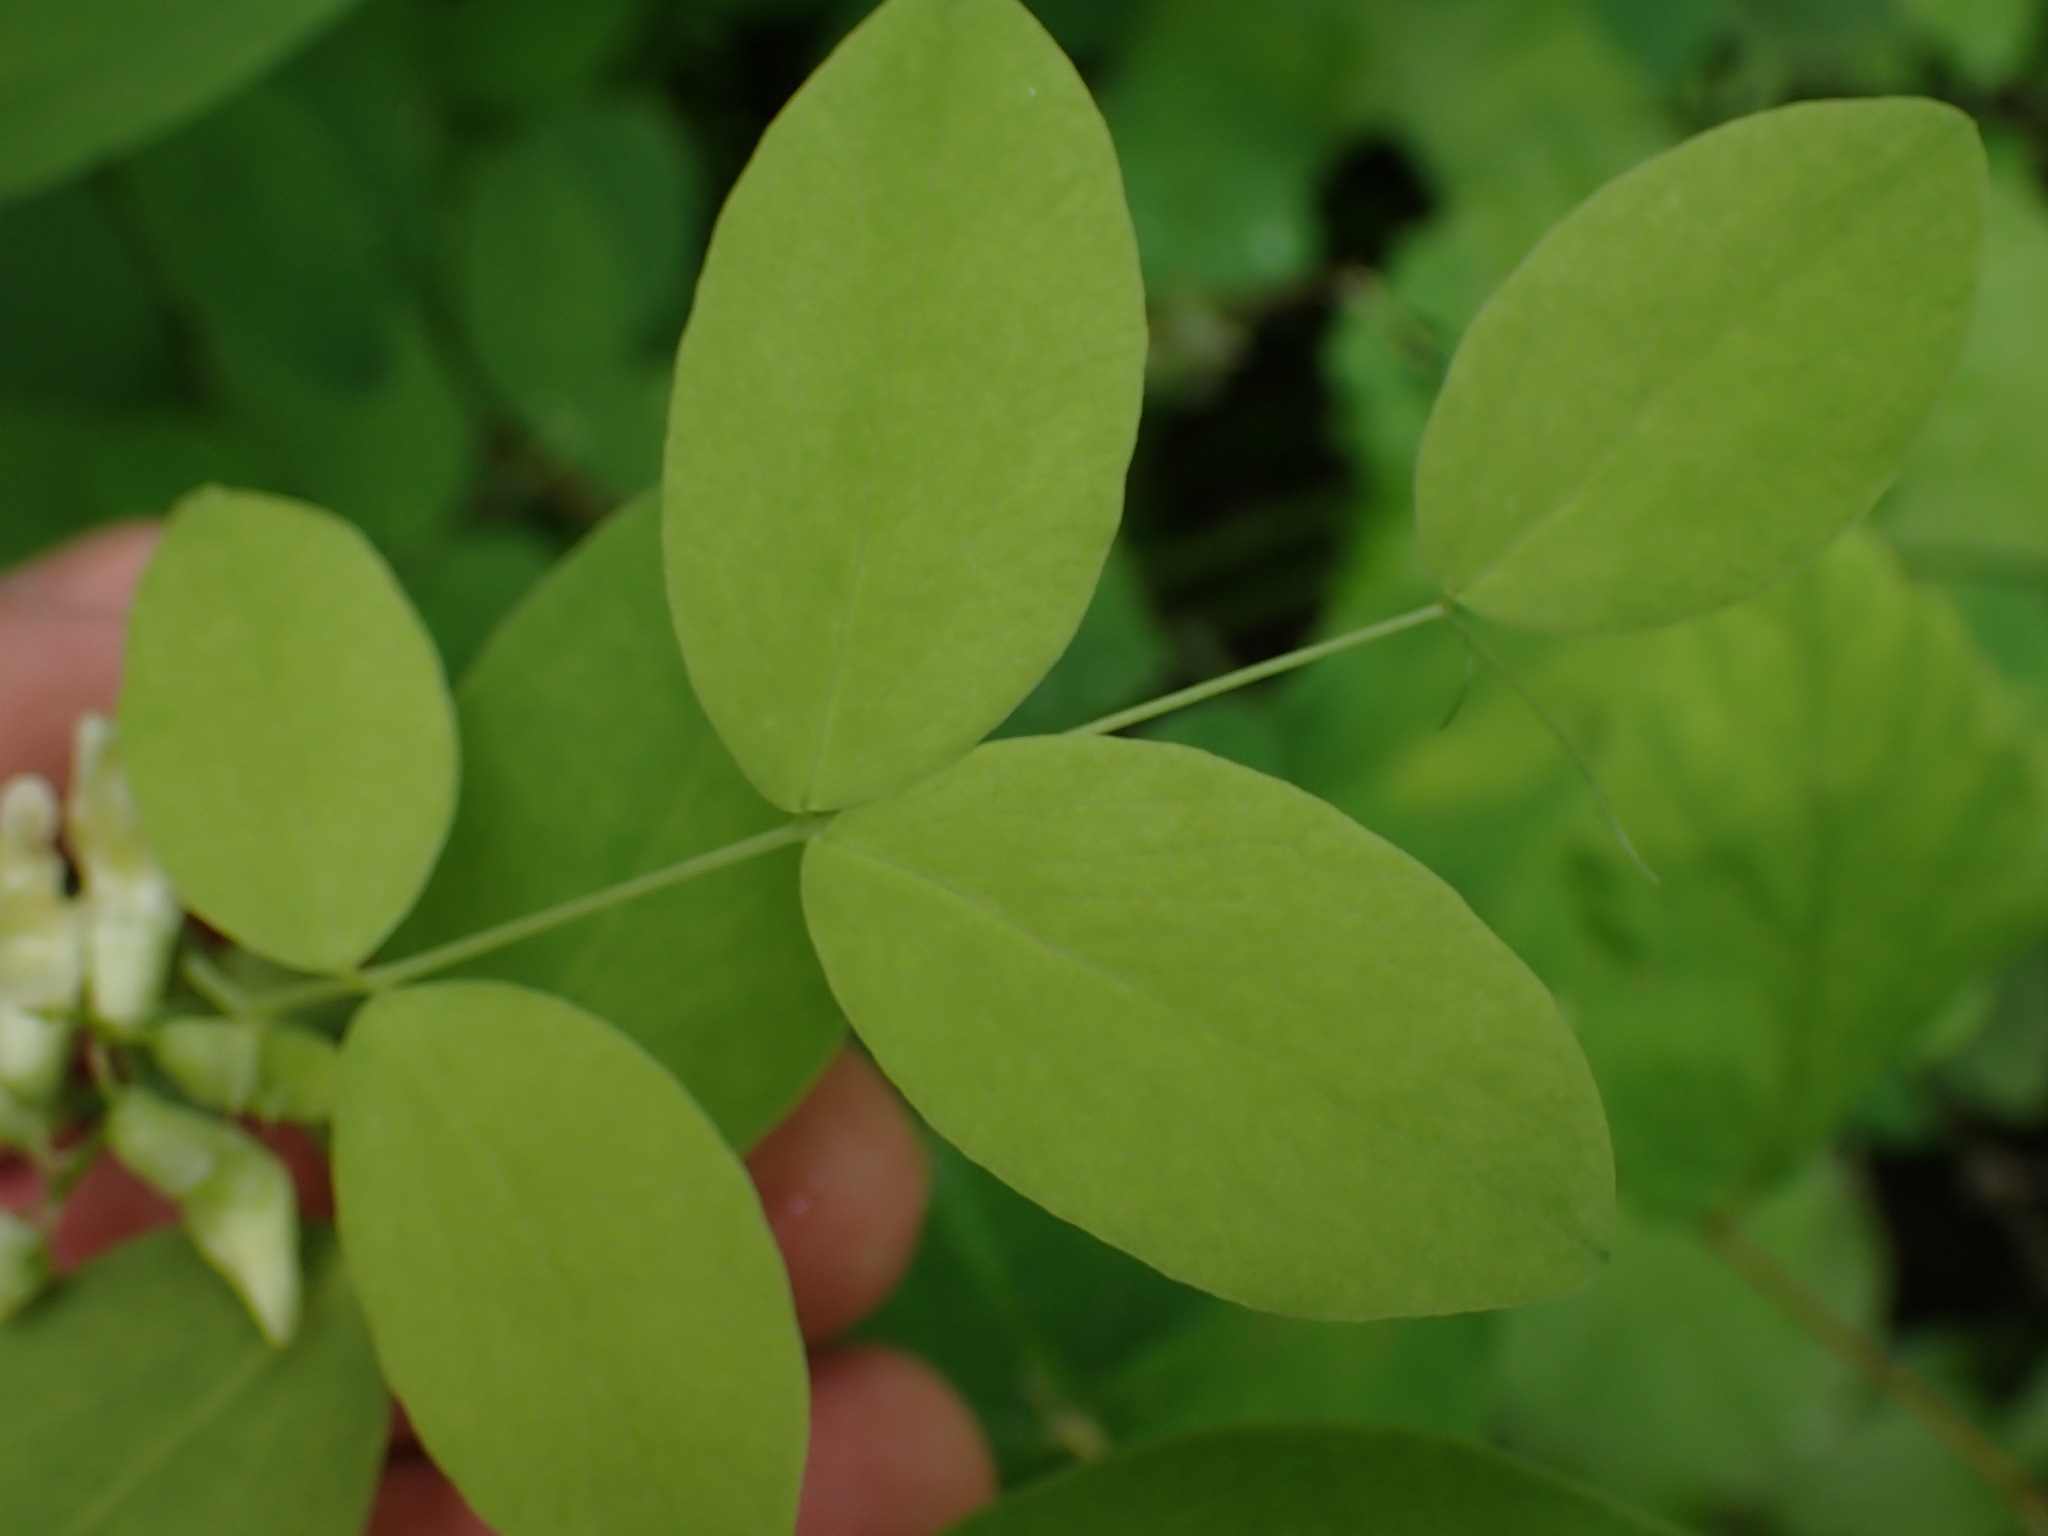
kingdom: Plantae
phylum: Tracheophyta
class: Magnoliopsida
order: Fabales
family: Fabaceae
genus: Lathyrus
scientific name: Lathyrus ochroleucus
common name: Pale vetchling
